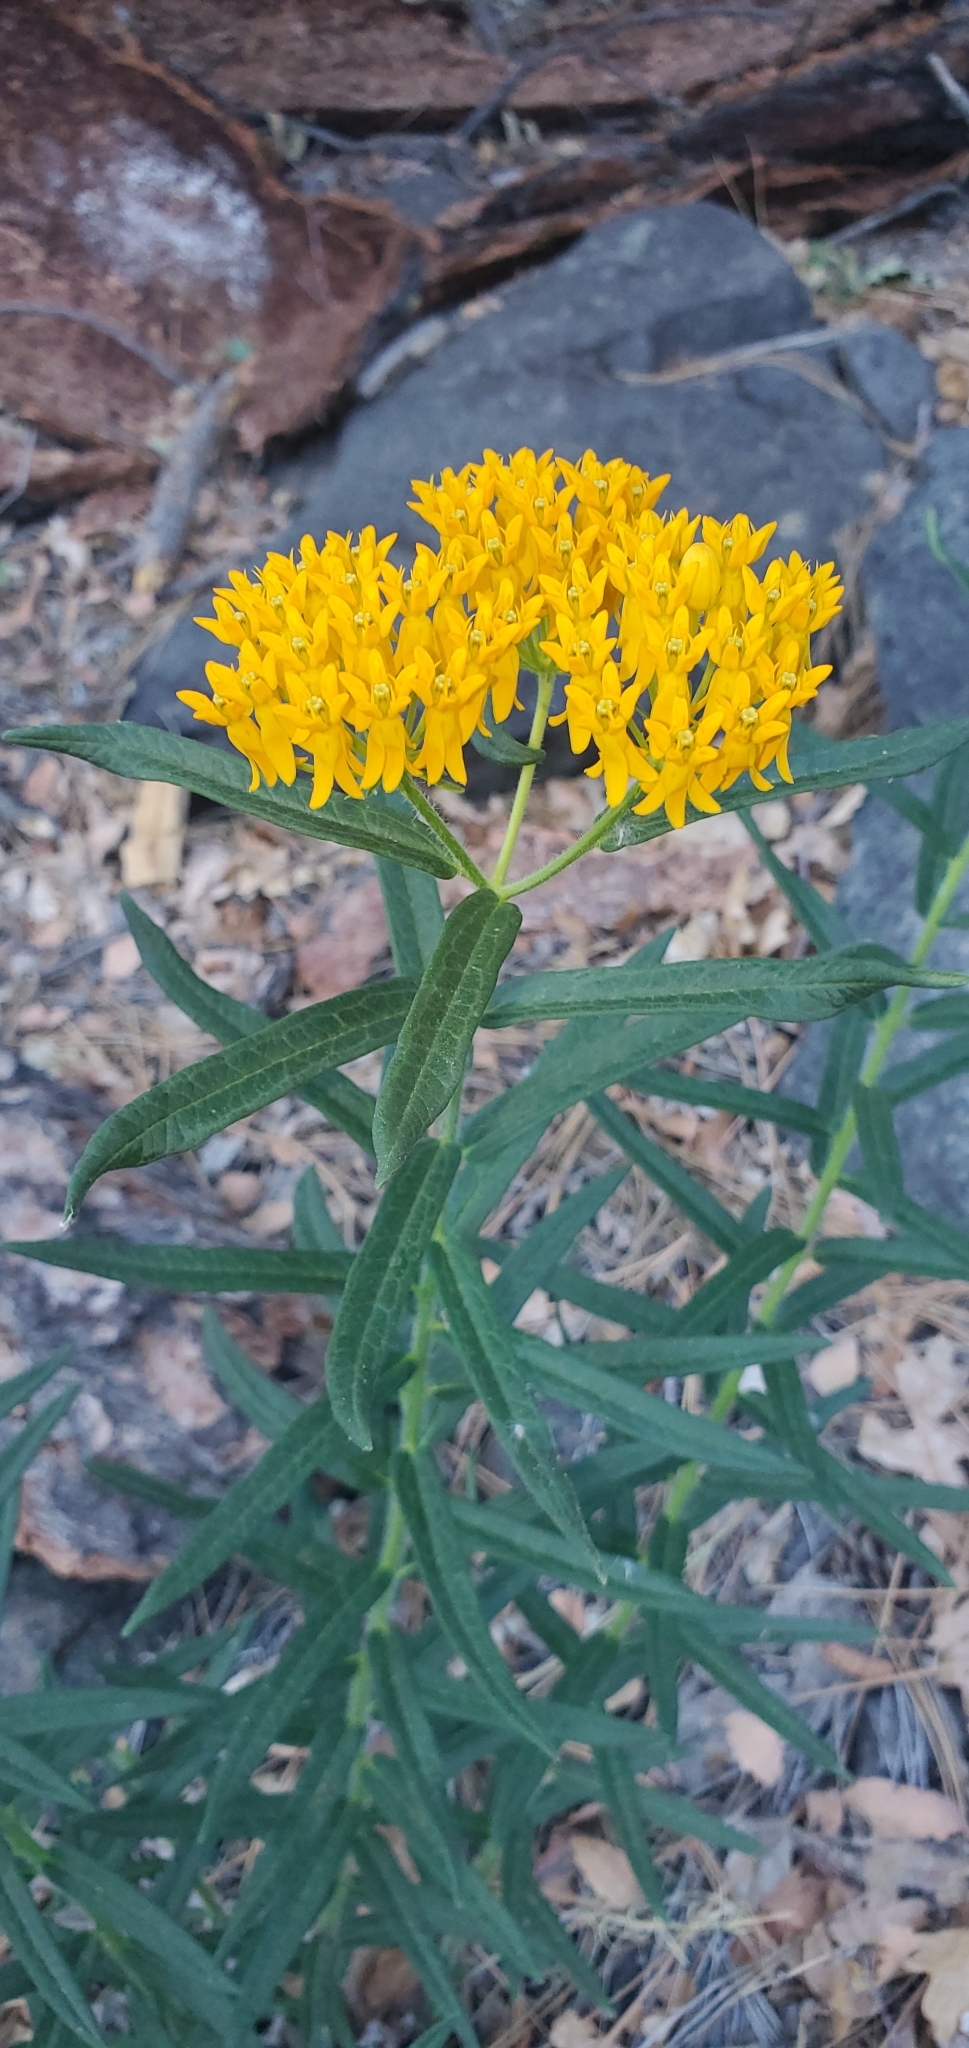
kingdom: Plantae
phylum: Tracheophyta
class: Magnoliopsida
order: Gentianales
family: Apocynaceae
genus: Asclepias
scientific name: Asclepias tuberosa
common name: Butterfly milkweed
